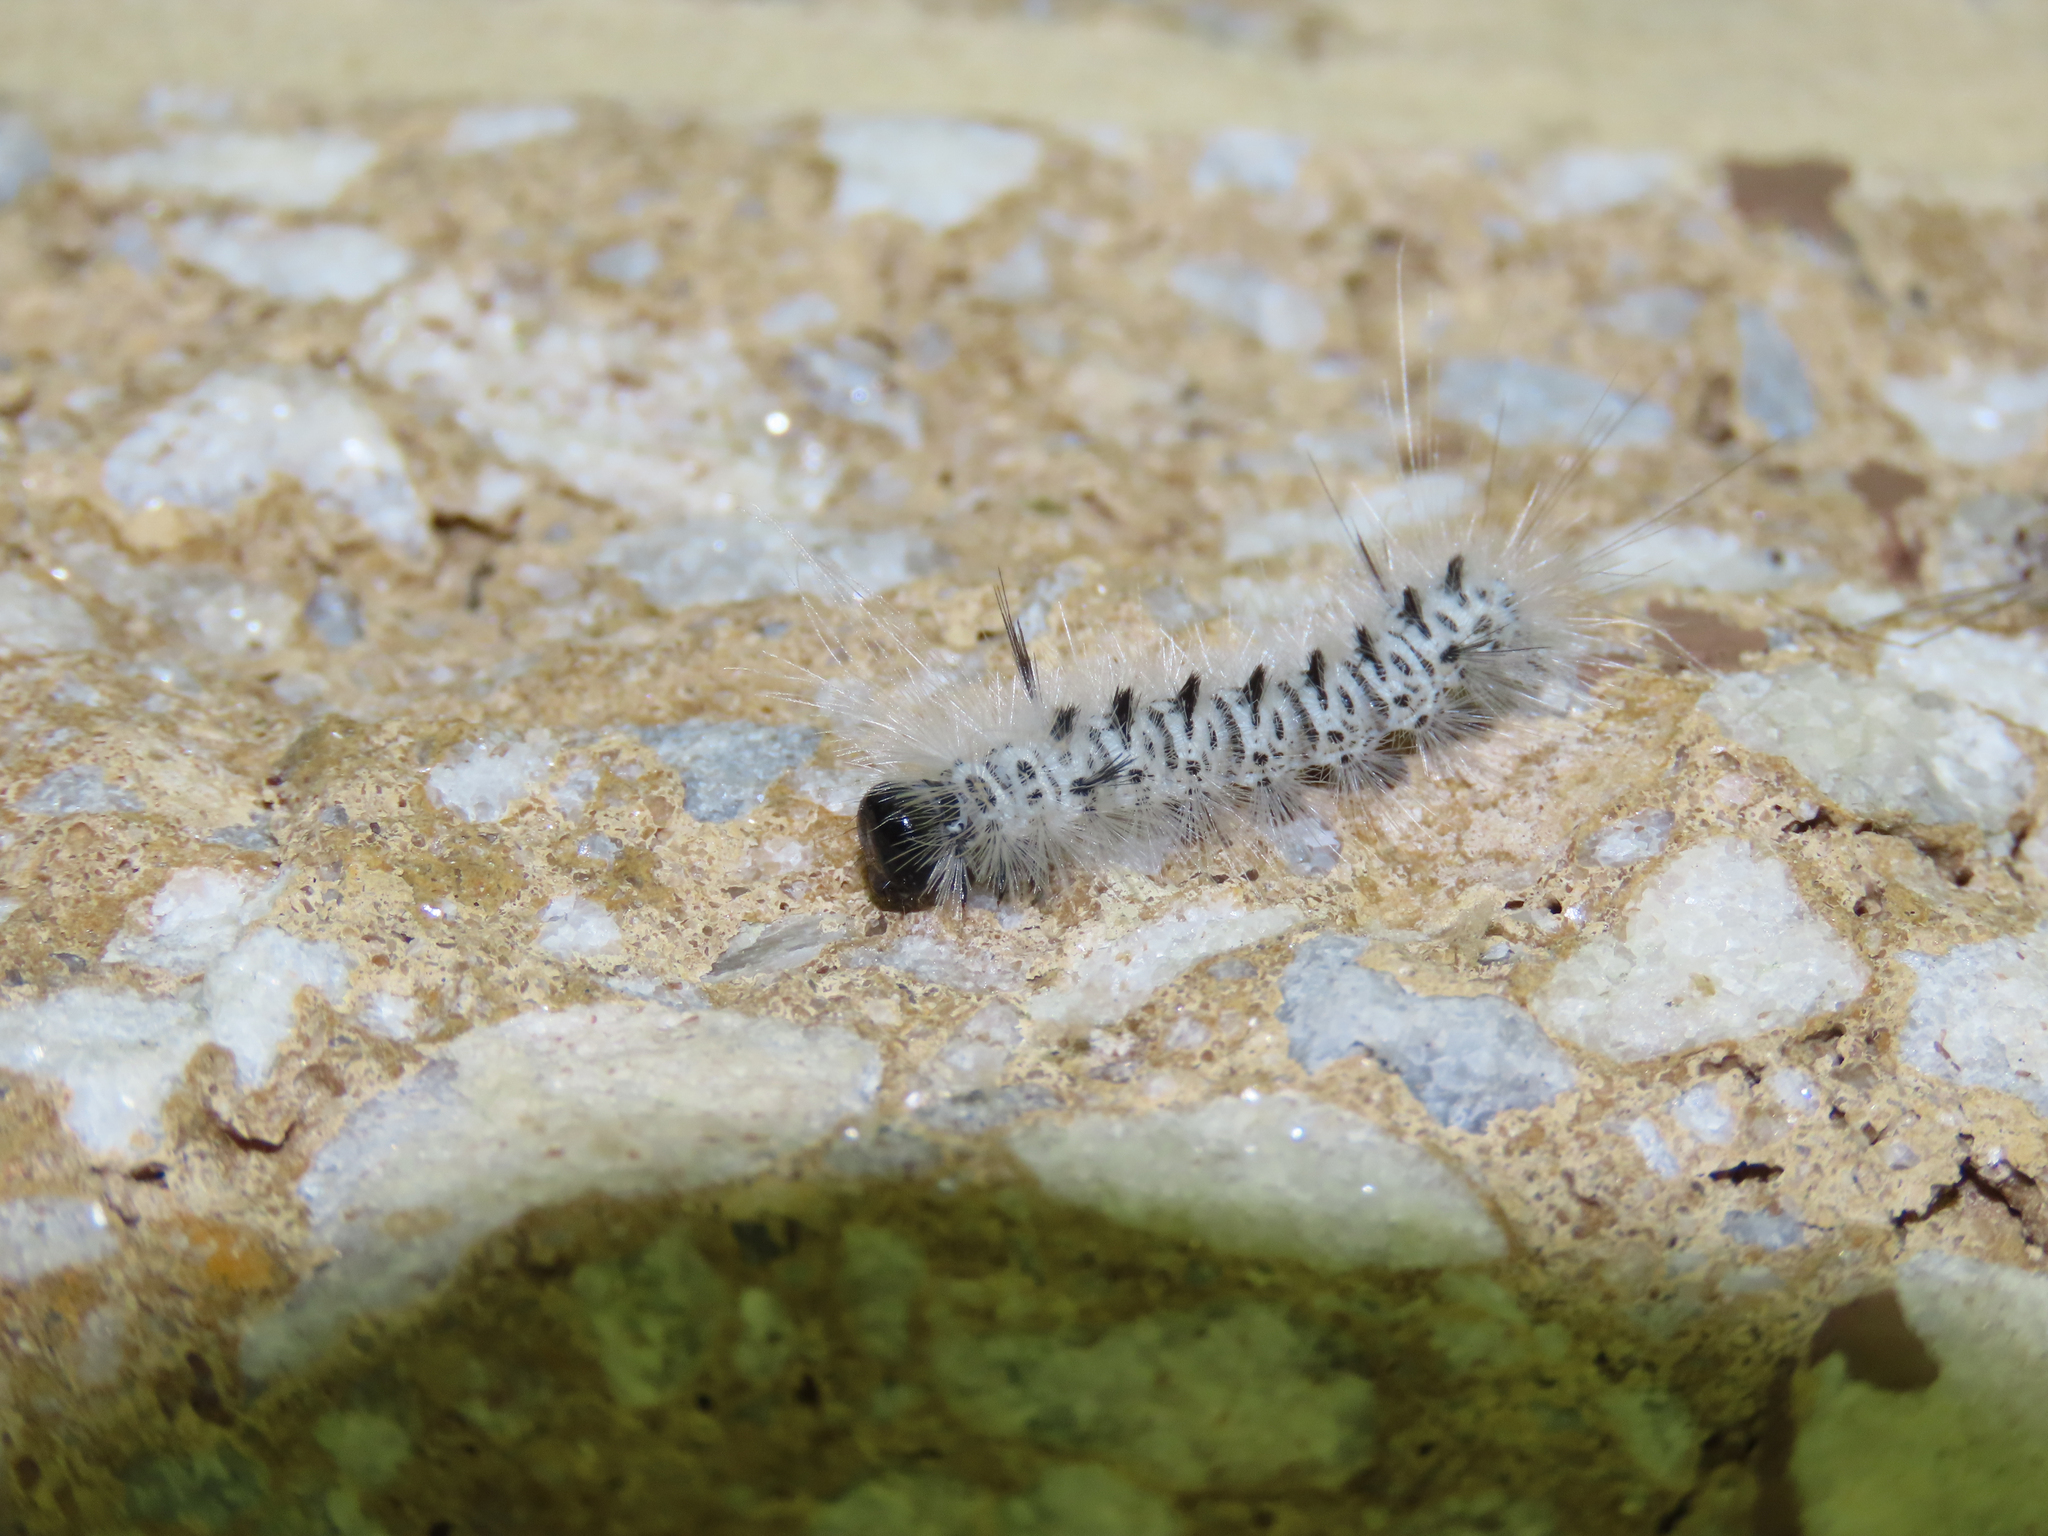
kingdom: Animalia
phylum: Arthropoda
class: Insecta
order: Lepidoptera
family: Erebidae
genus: Lophocampa
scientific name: Lophocampa caryae
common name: Hickory tussock moth
